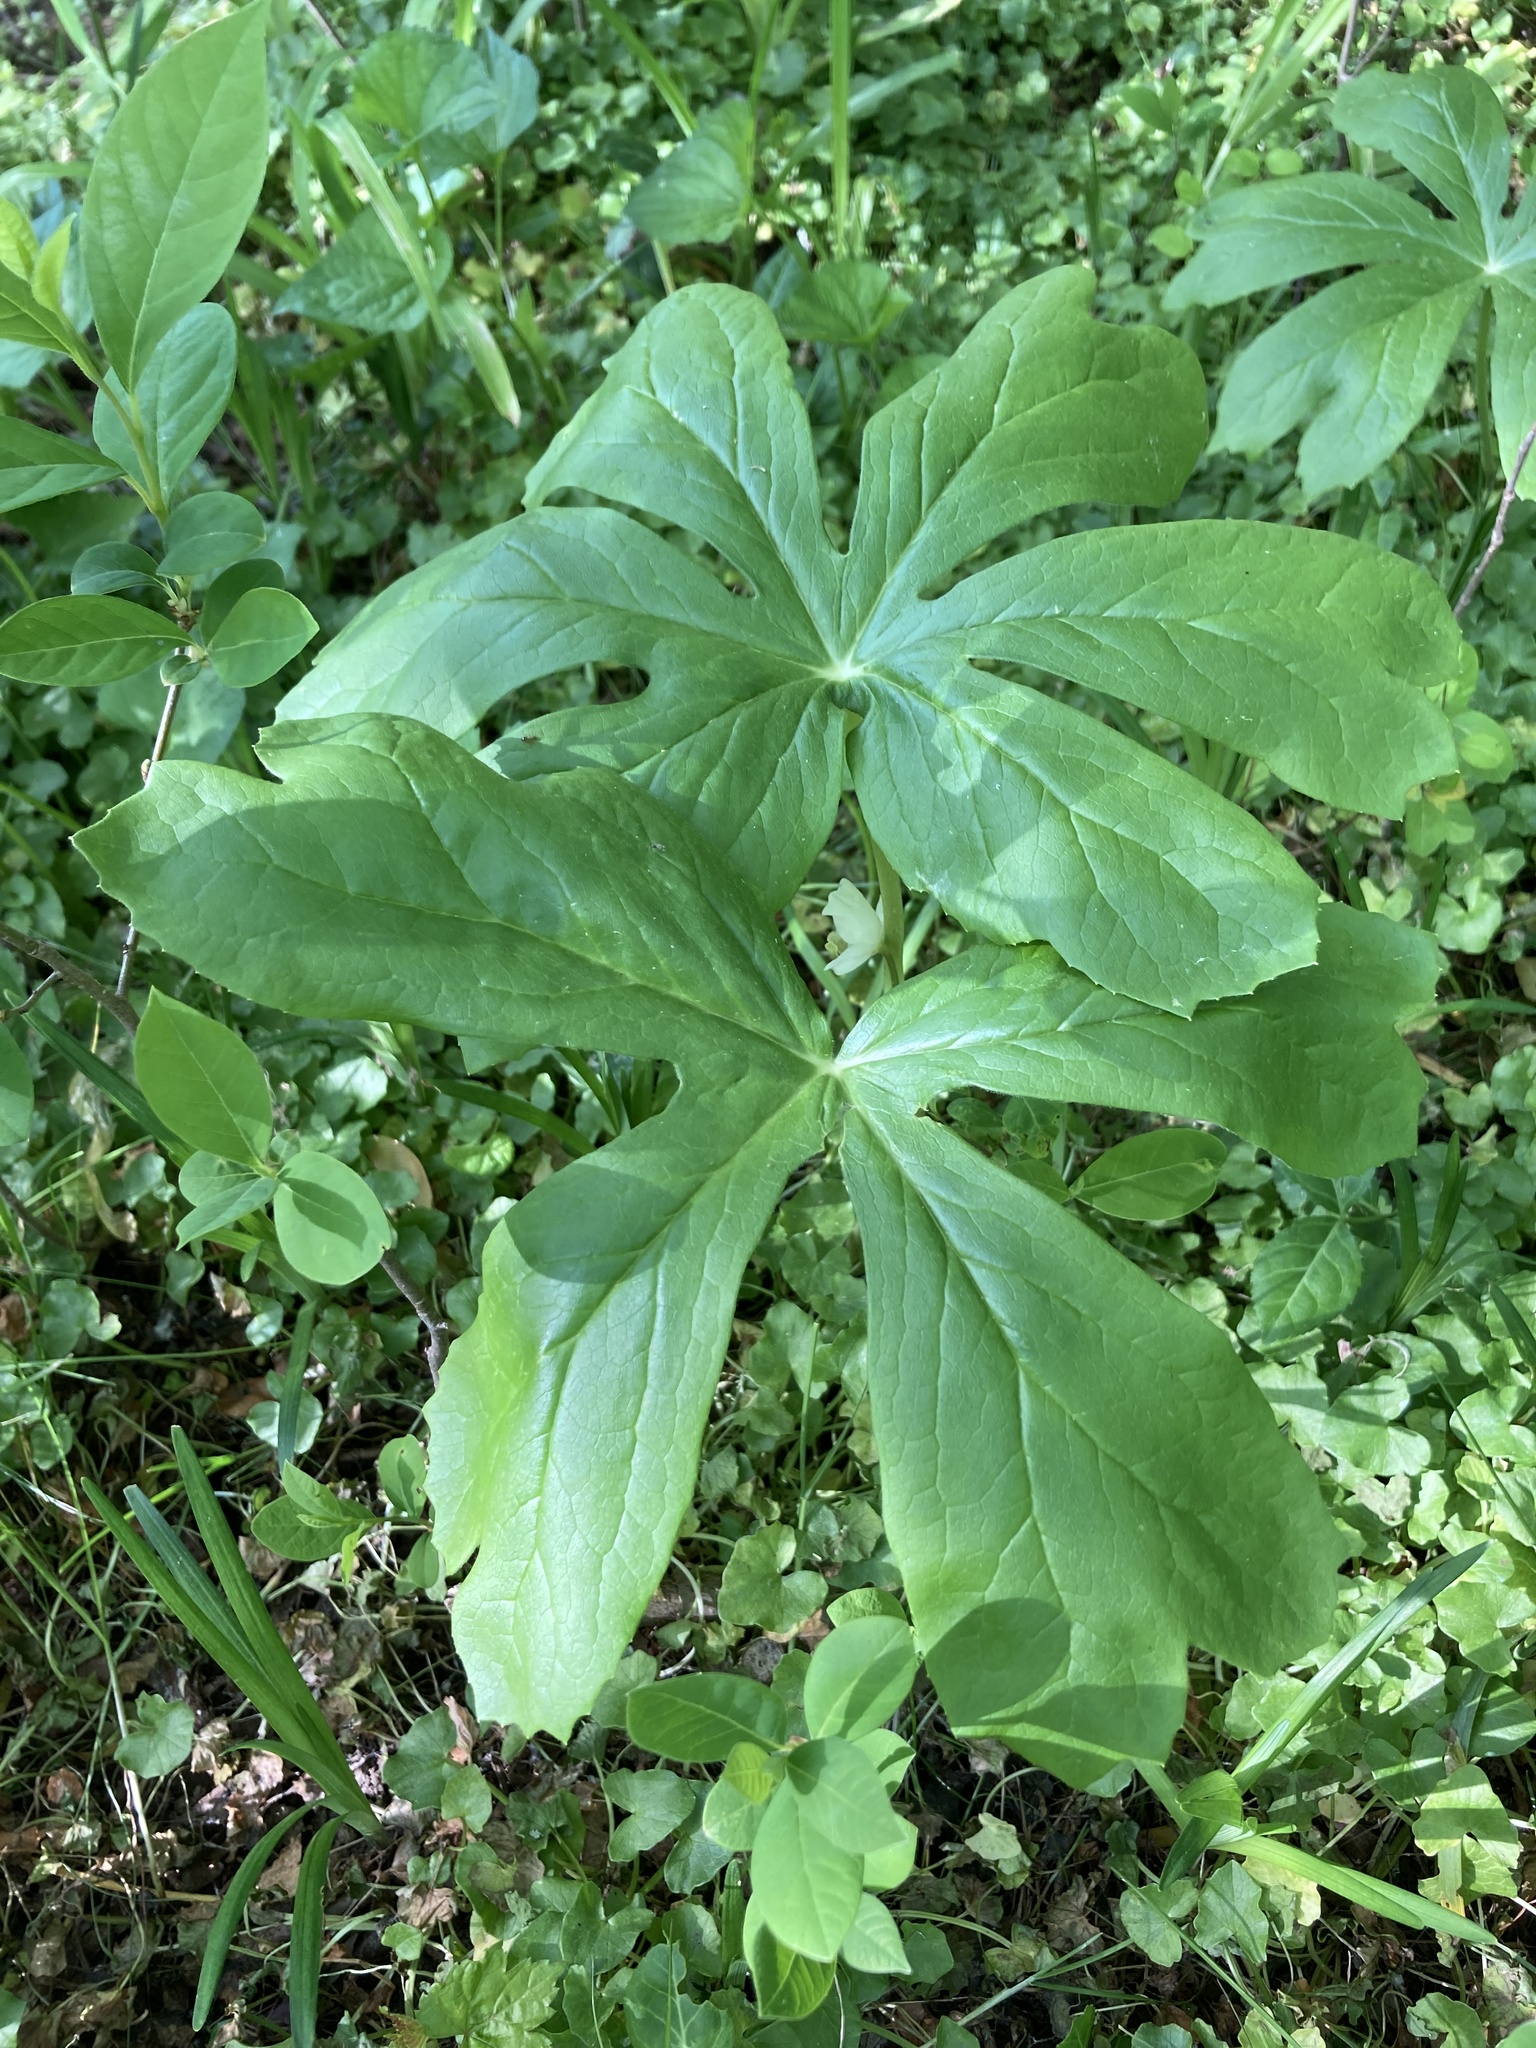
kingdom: Plantae
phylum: Tracheophyta
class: Magnoliopsida
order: Ranunculales
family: Berberidaceae
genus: Podophyllum
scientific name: Podophyllum peltatum
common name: Wild mandrake
